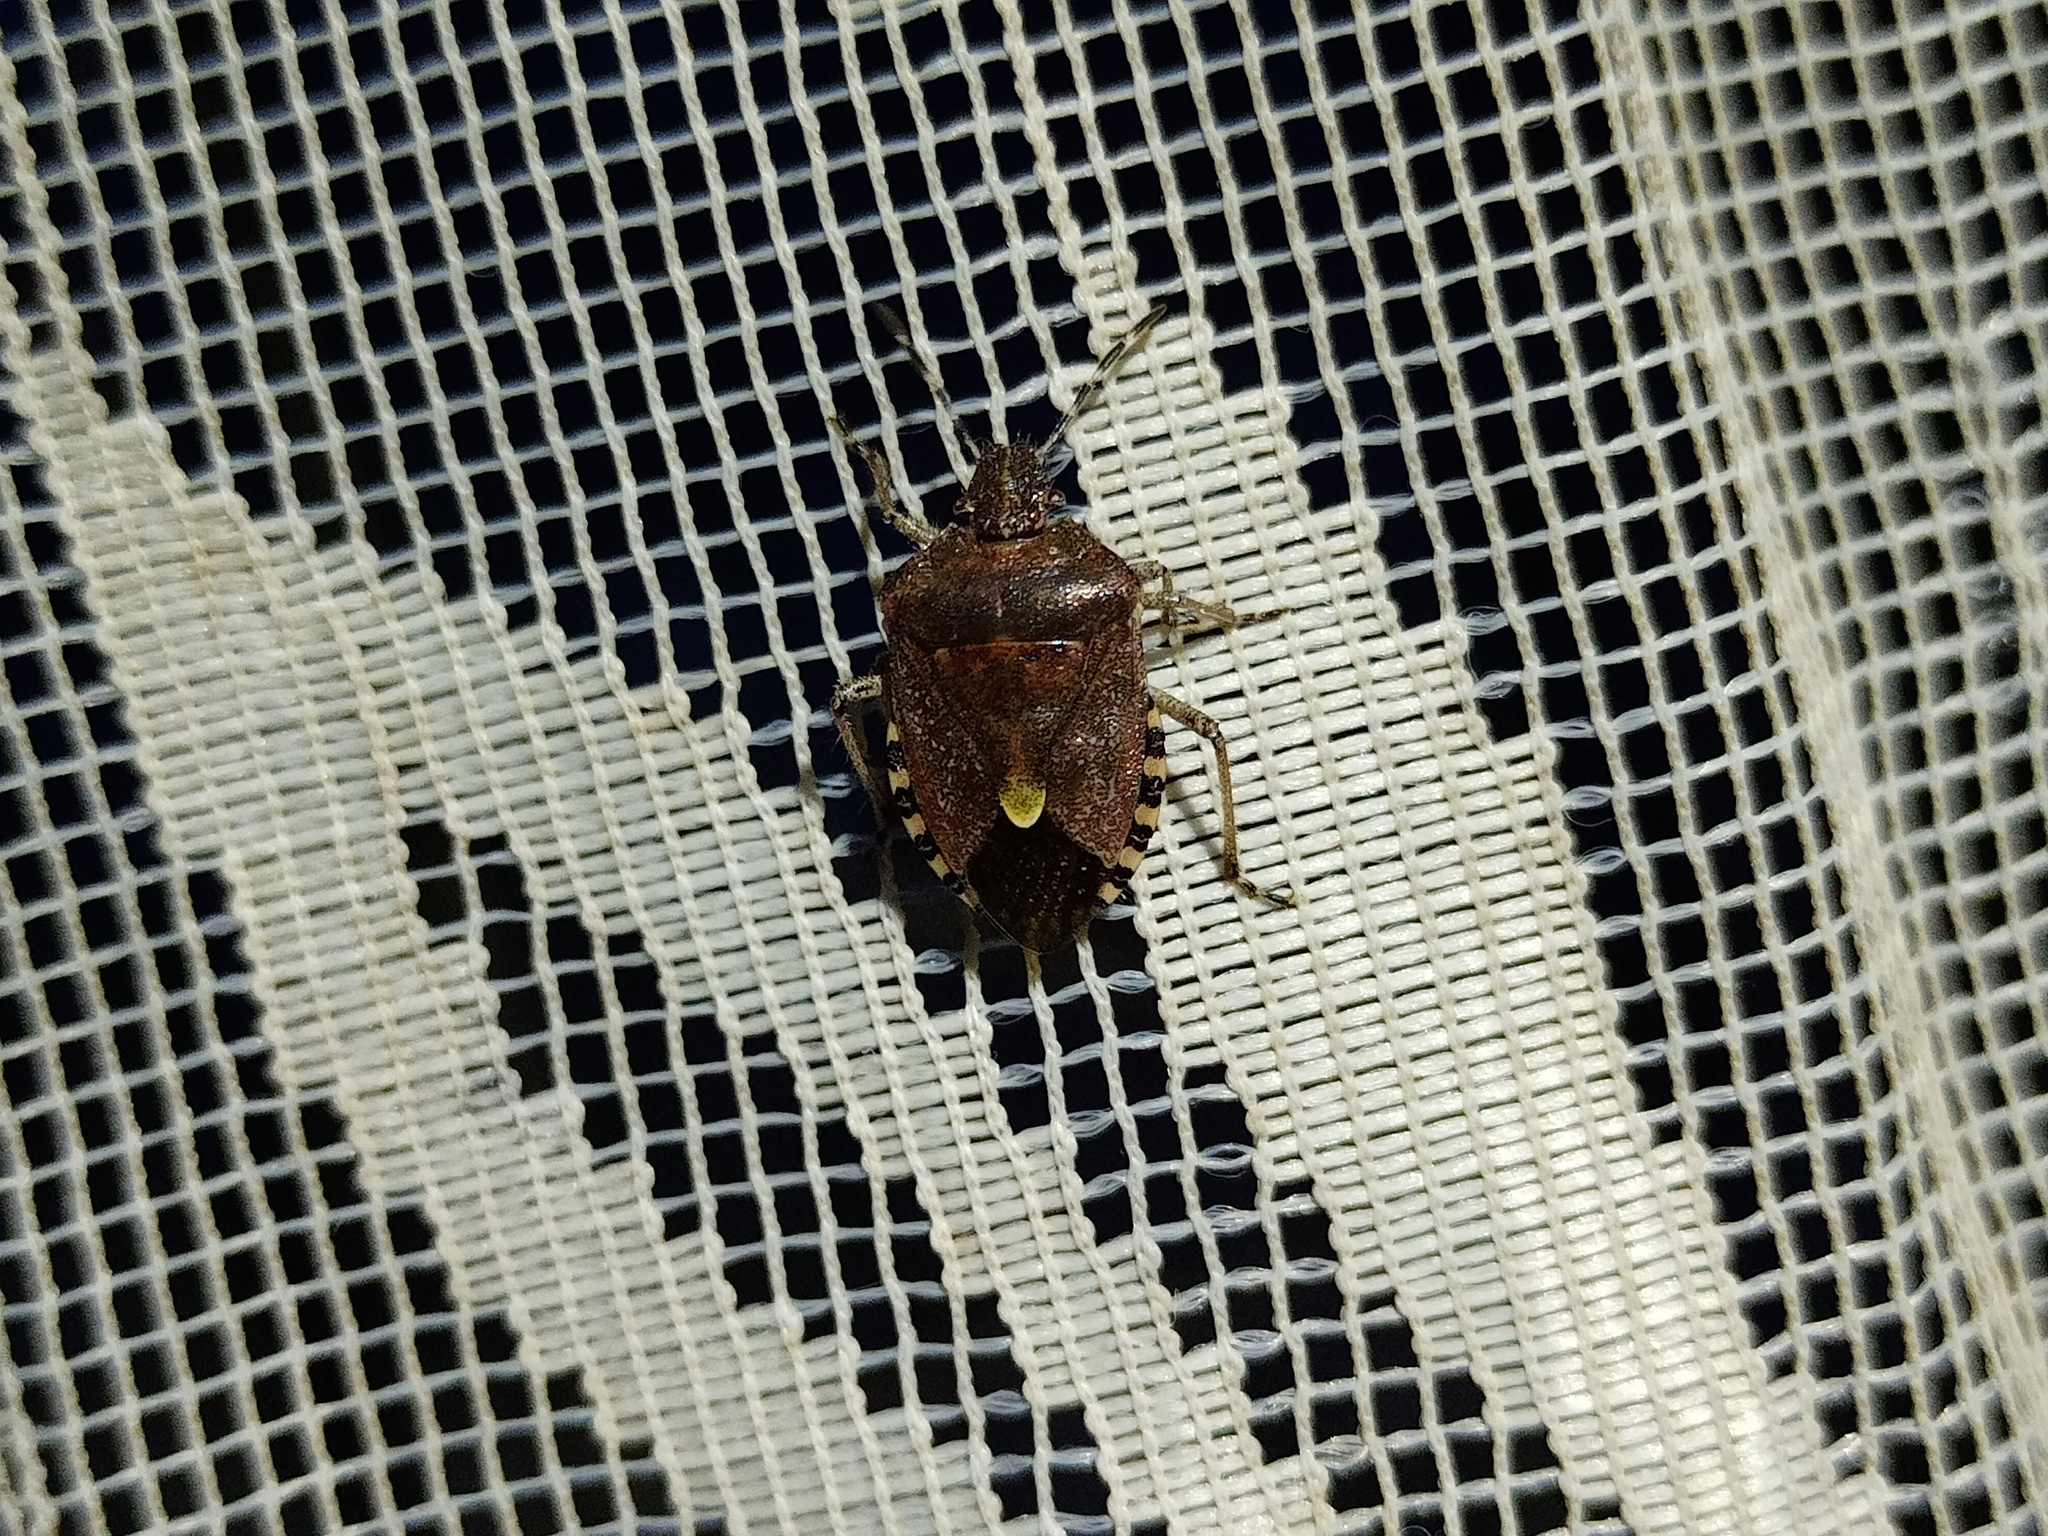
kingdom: Animalia
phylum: Arthropoda
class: Insecta
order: Hemiptera
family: Pentatomidae
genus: Dolycoris
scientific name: Dolycoris baccarum
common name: Sloe bug
